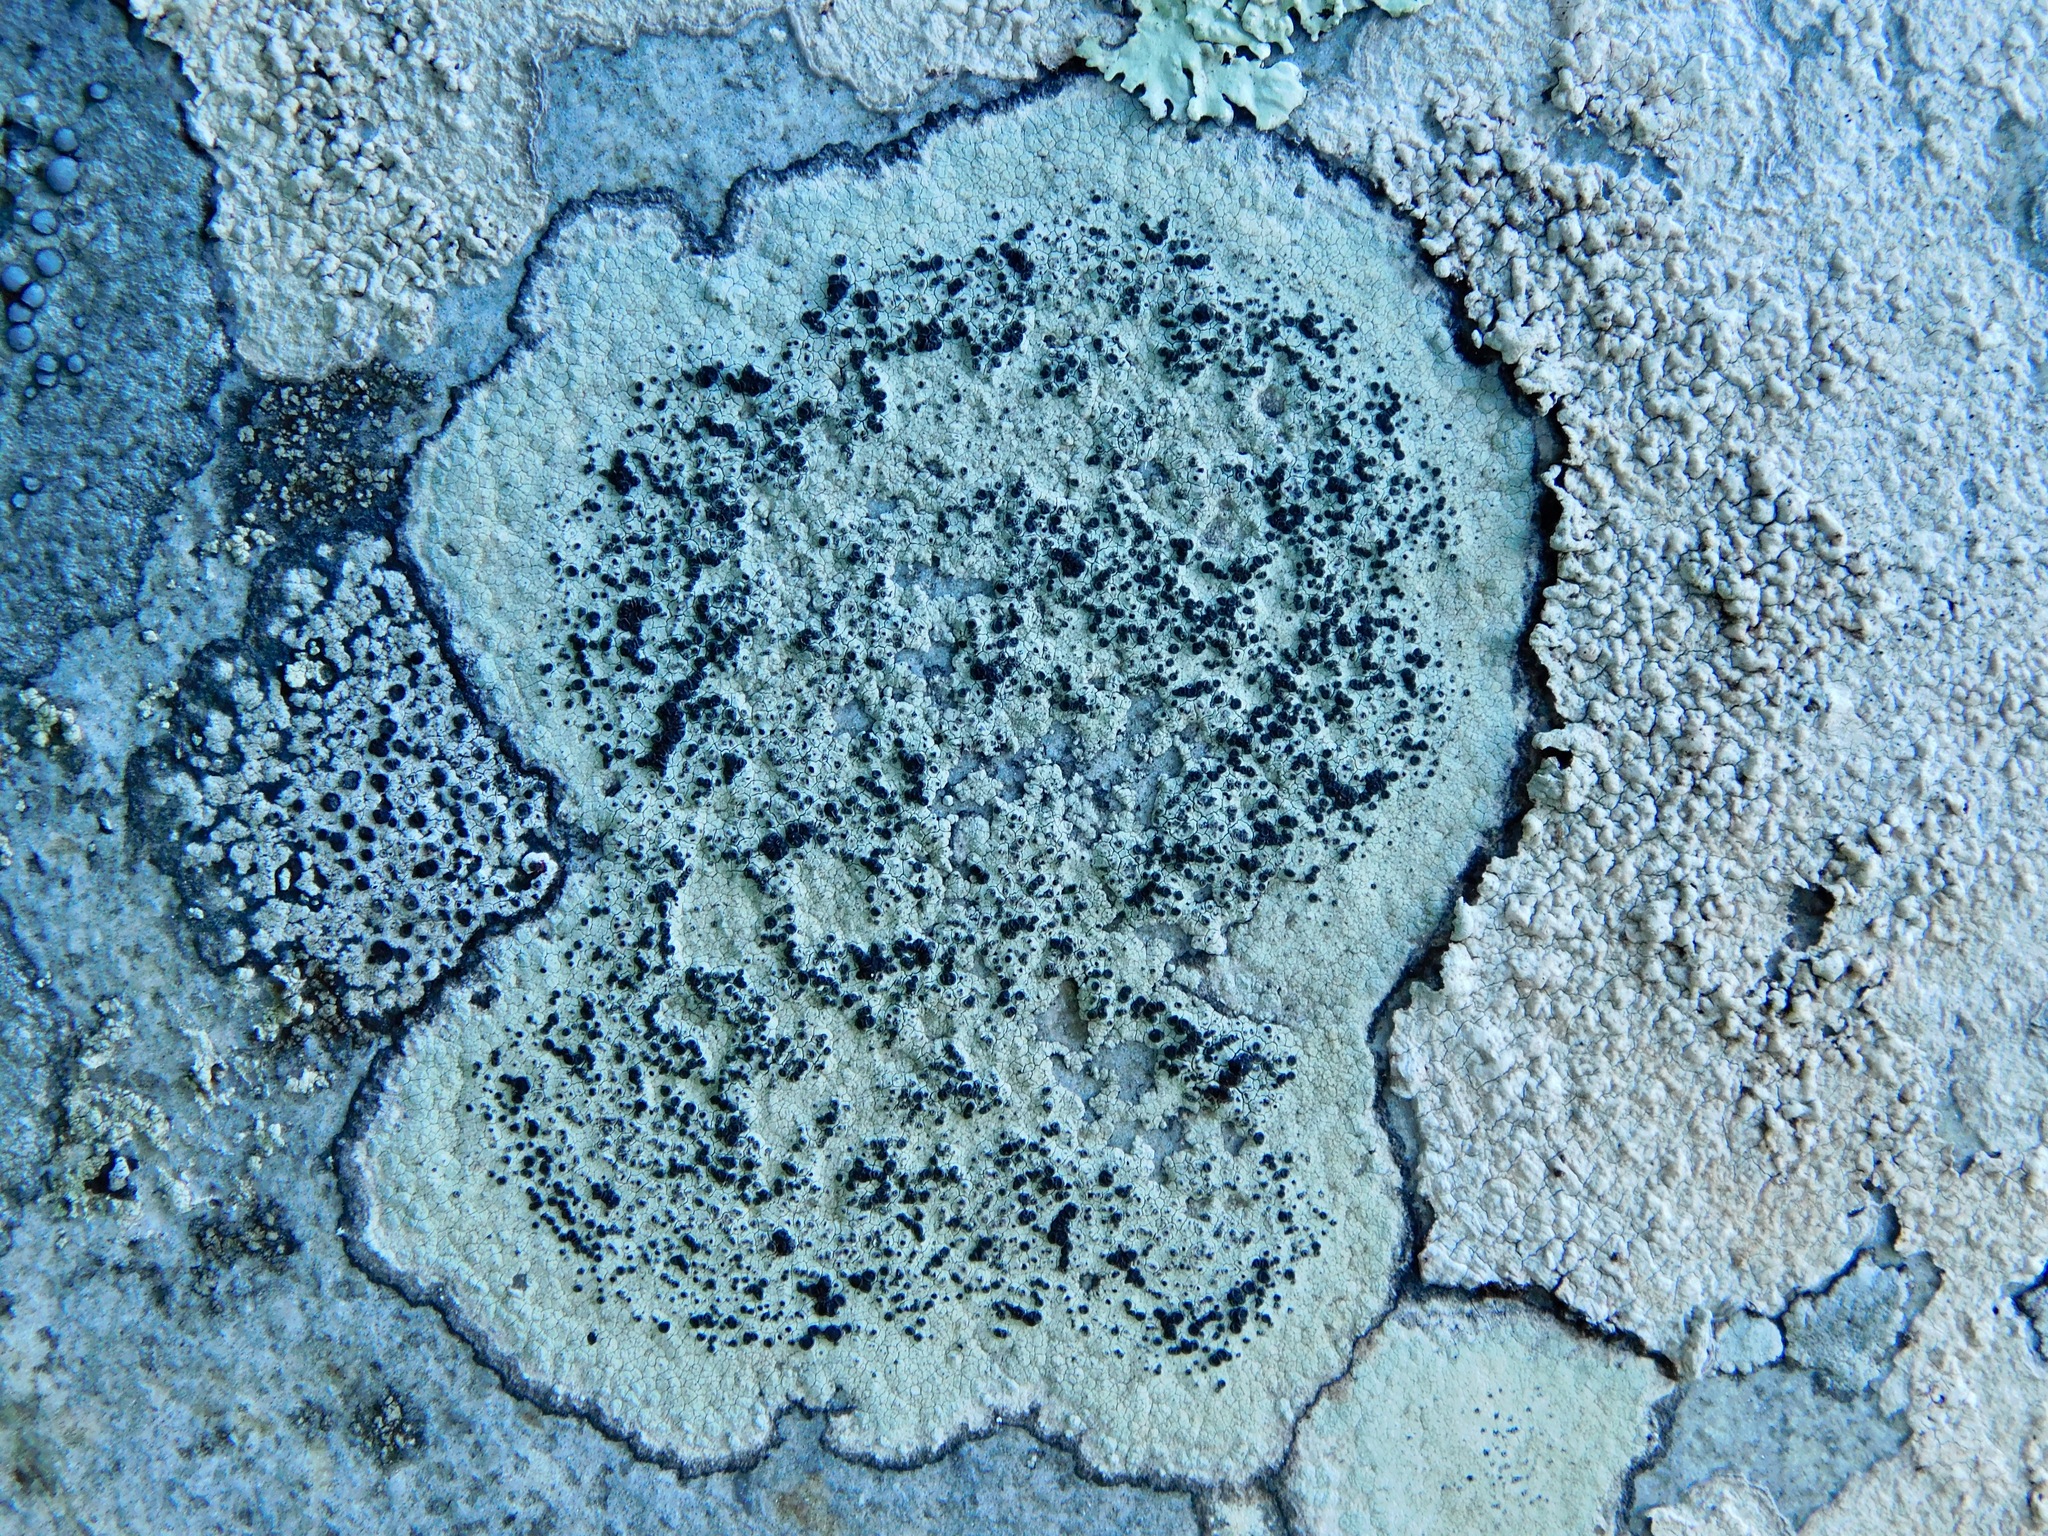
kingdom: Fungi
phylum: Ascomycota
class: Lecanoromycetes
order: Caliciales
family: Caliciaceae
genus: Buellia
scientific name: Buellia mamillana
